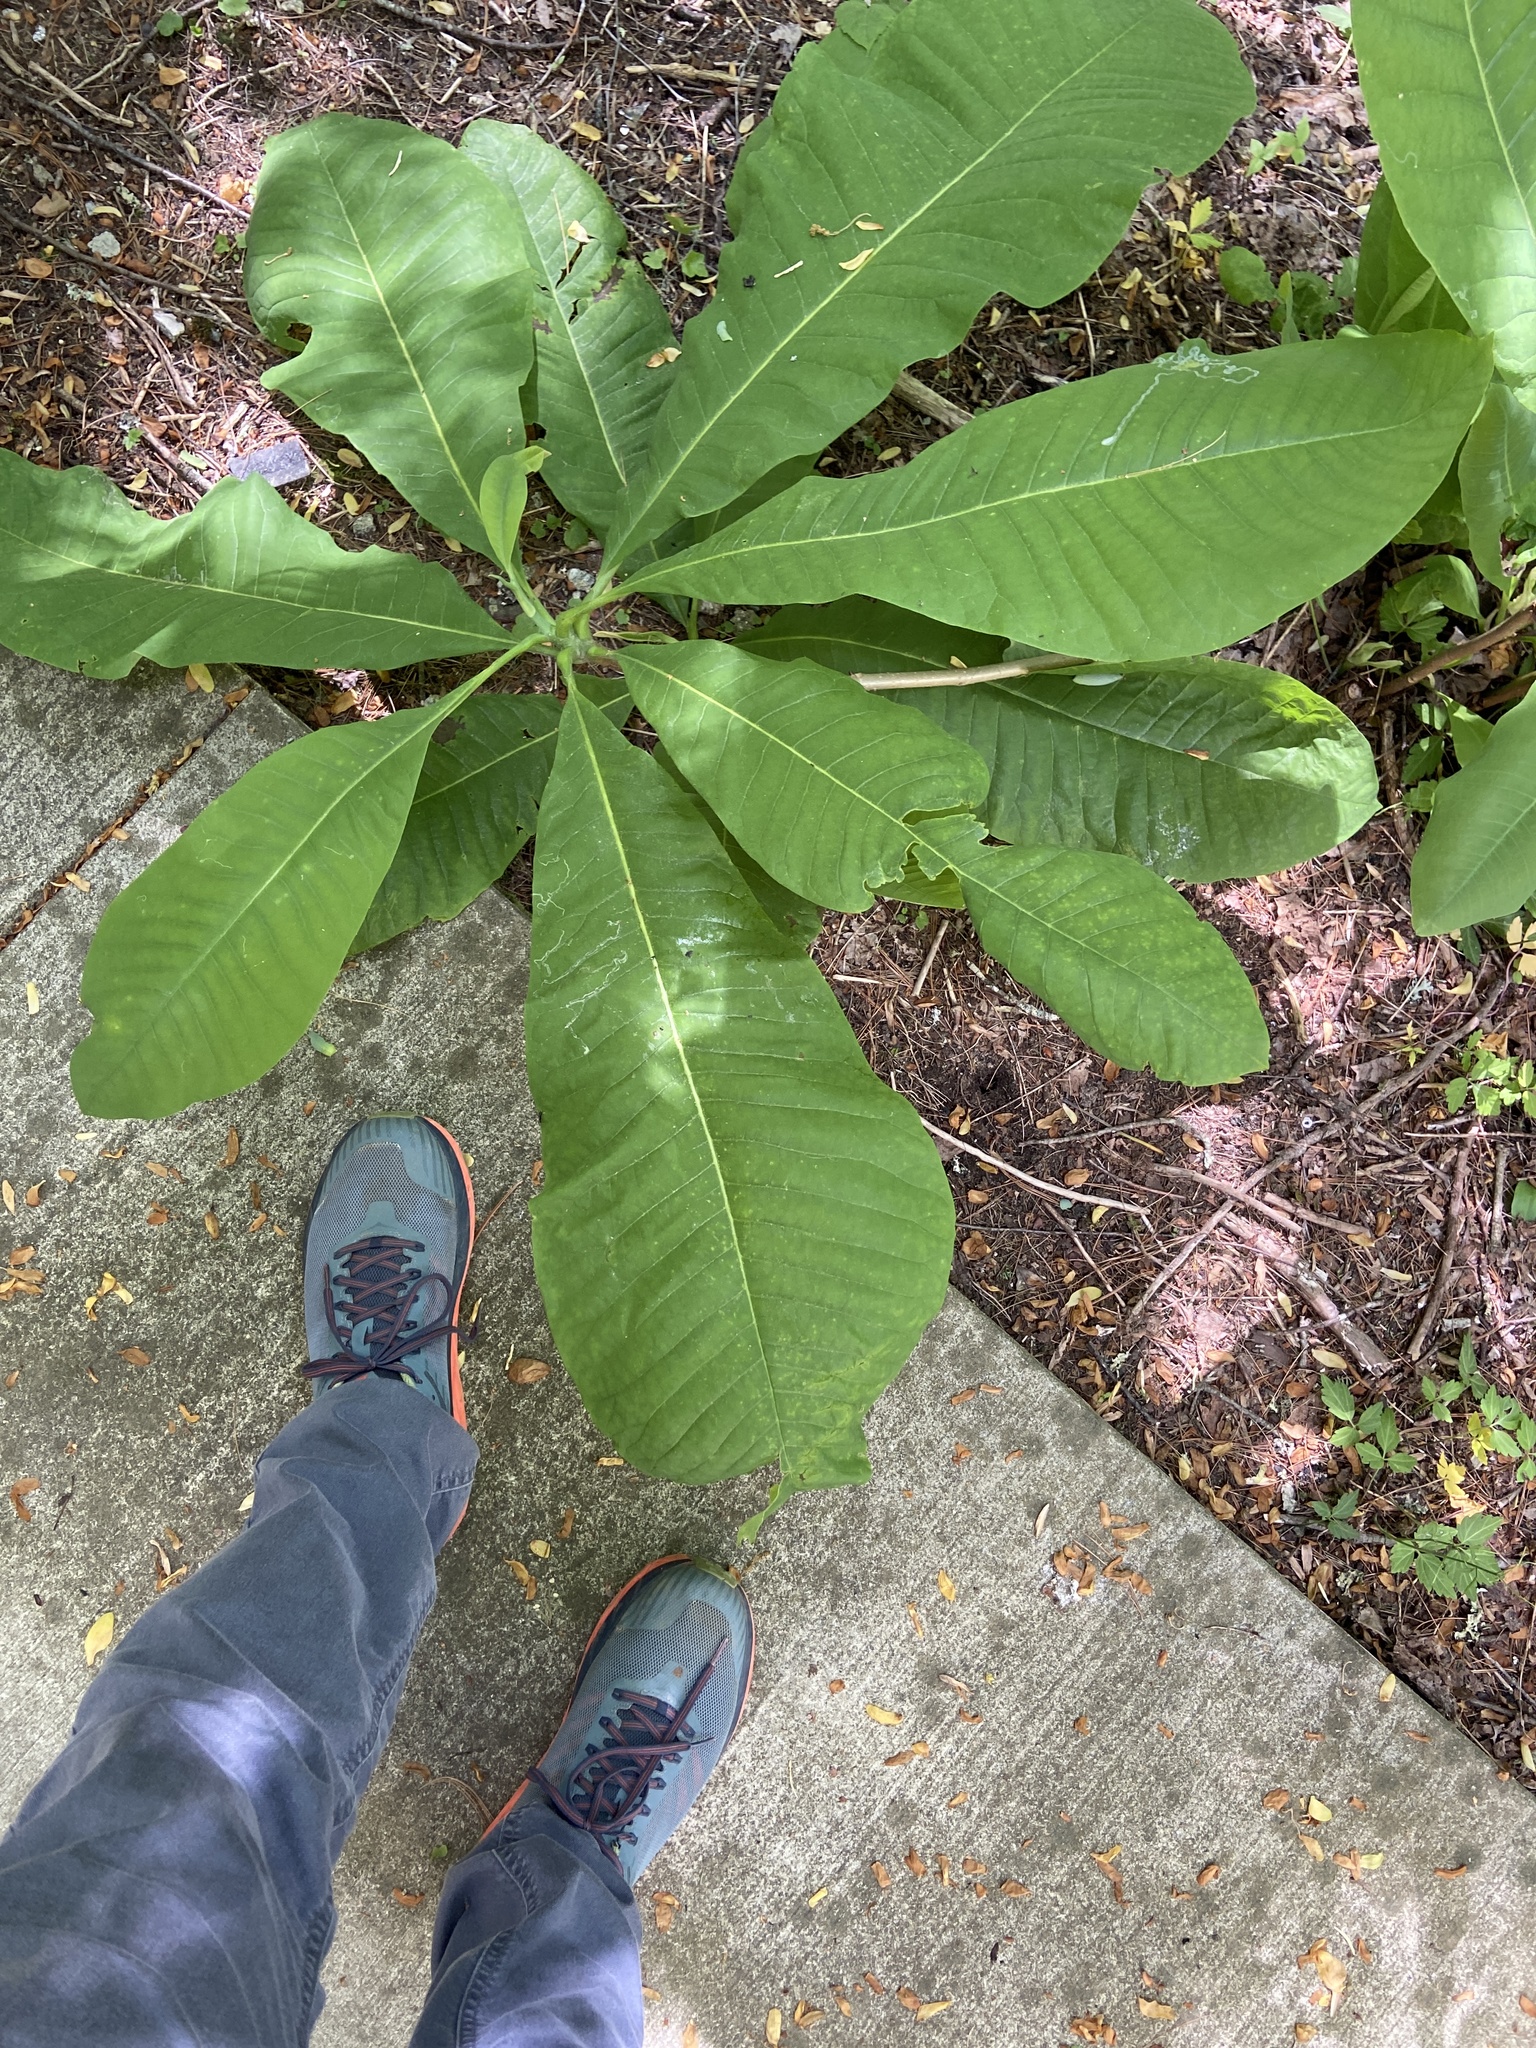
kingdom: Plantae
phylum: Tracheophyta
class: Magnoliopsida
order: Magnoliales
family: Magnoliaceae
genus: Magnolia
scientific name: Magnolia tripetala
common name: Umbrella magnolia
